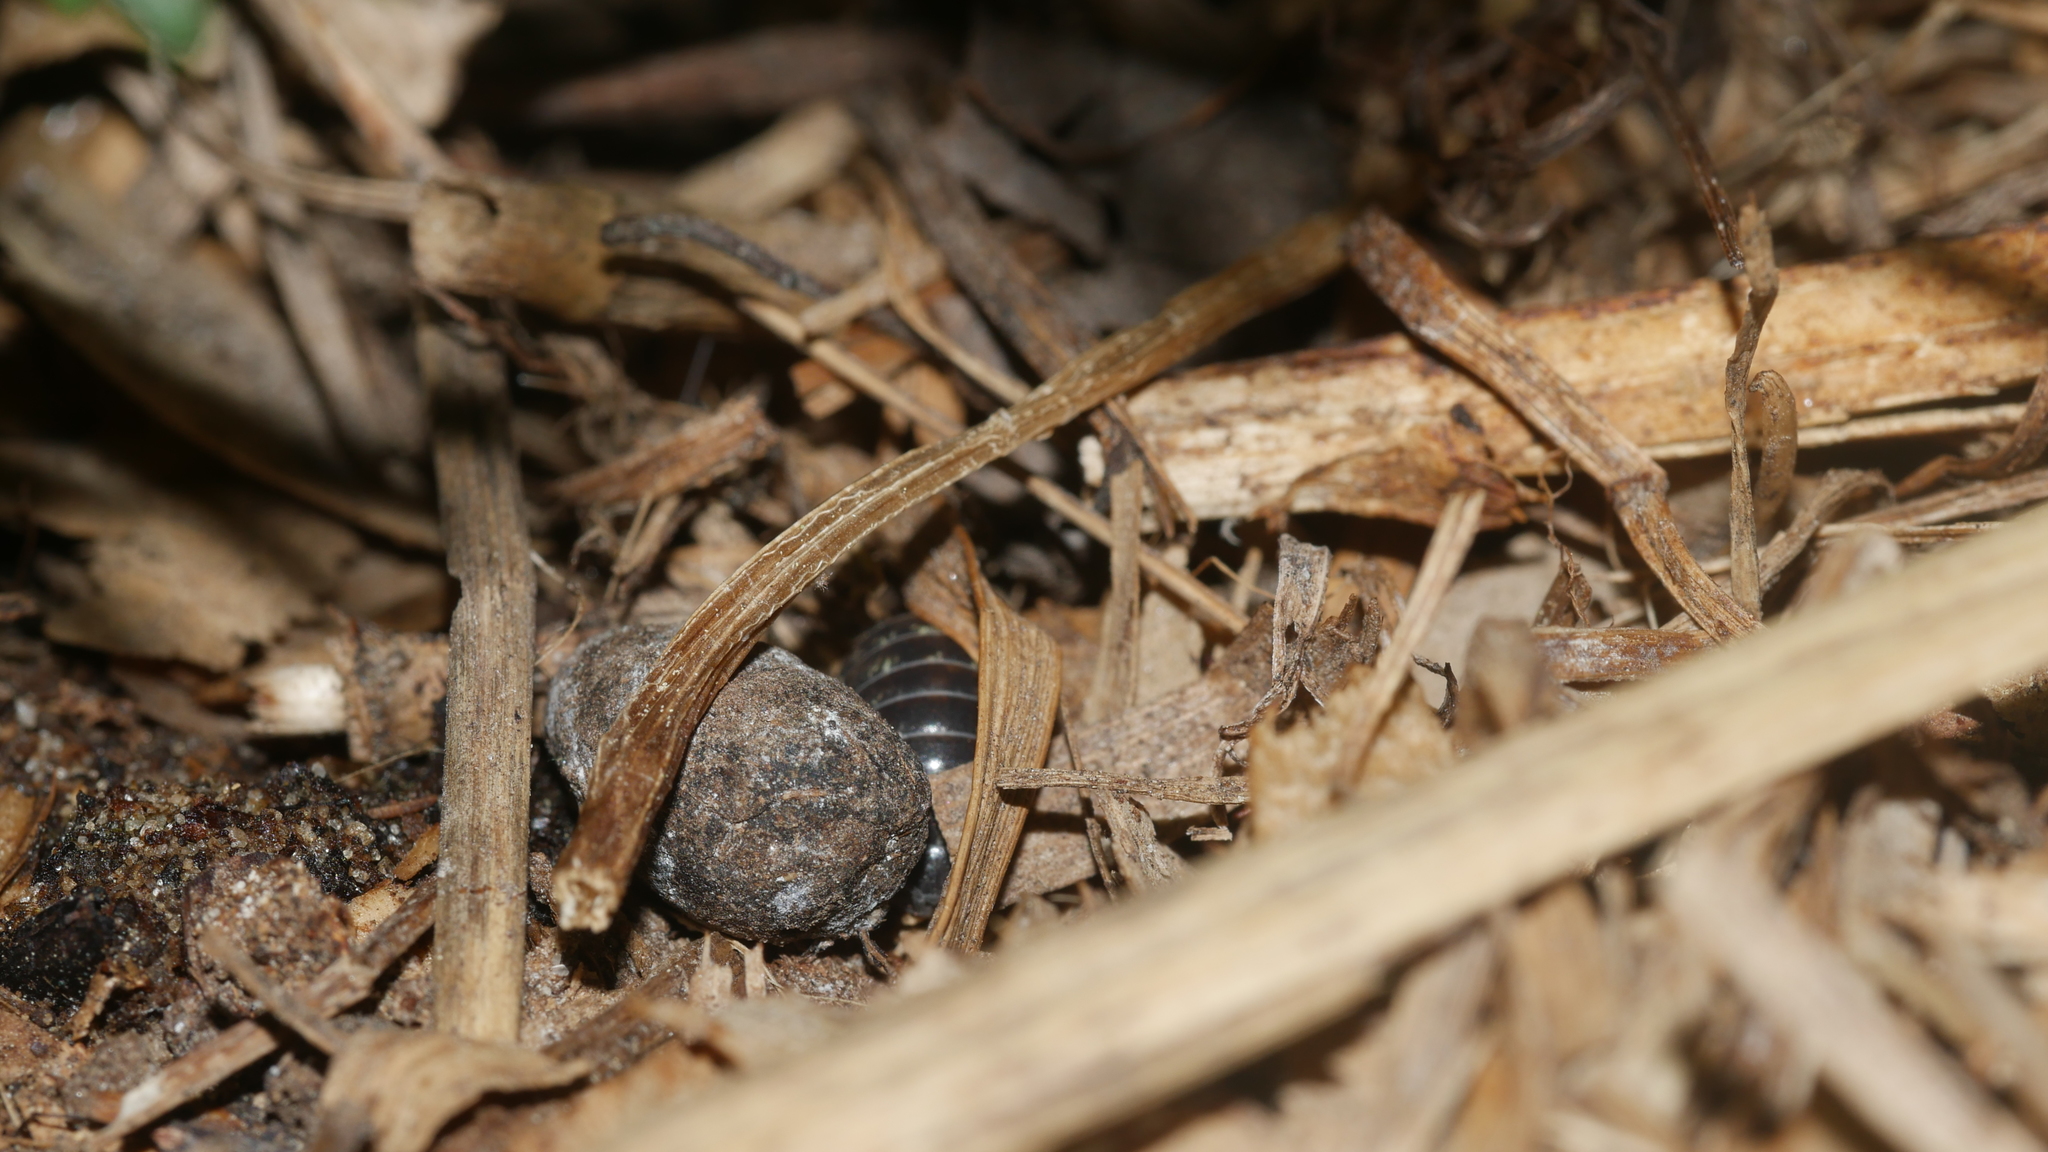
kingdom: Animalia
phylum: Arthropoda
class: Malacostraca
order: Isopoda
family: Armadillidiidae
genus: Armadillidium
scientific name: Armadillidium vulgare
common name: Common pill woodlouse
